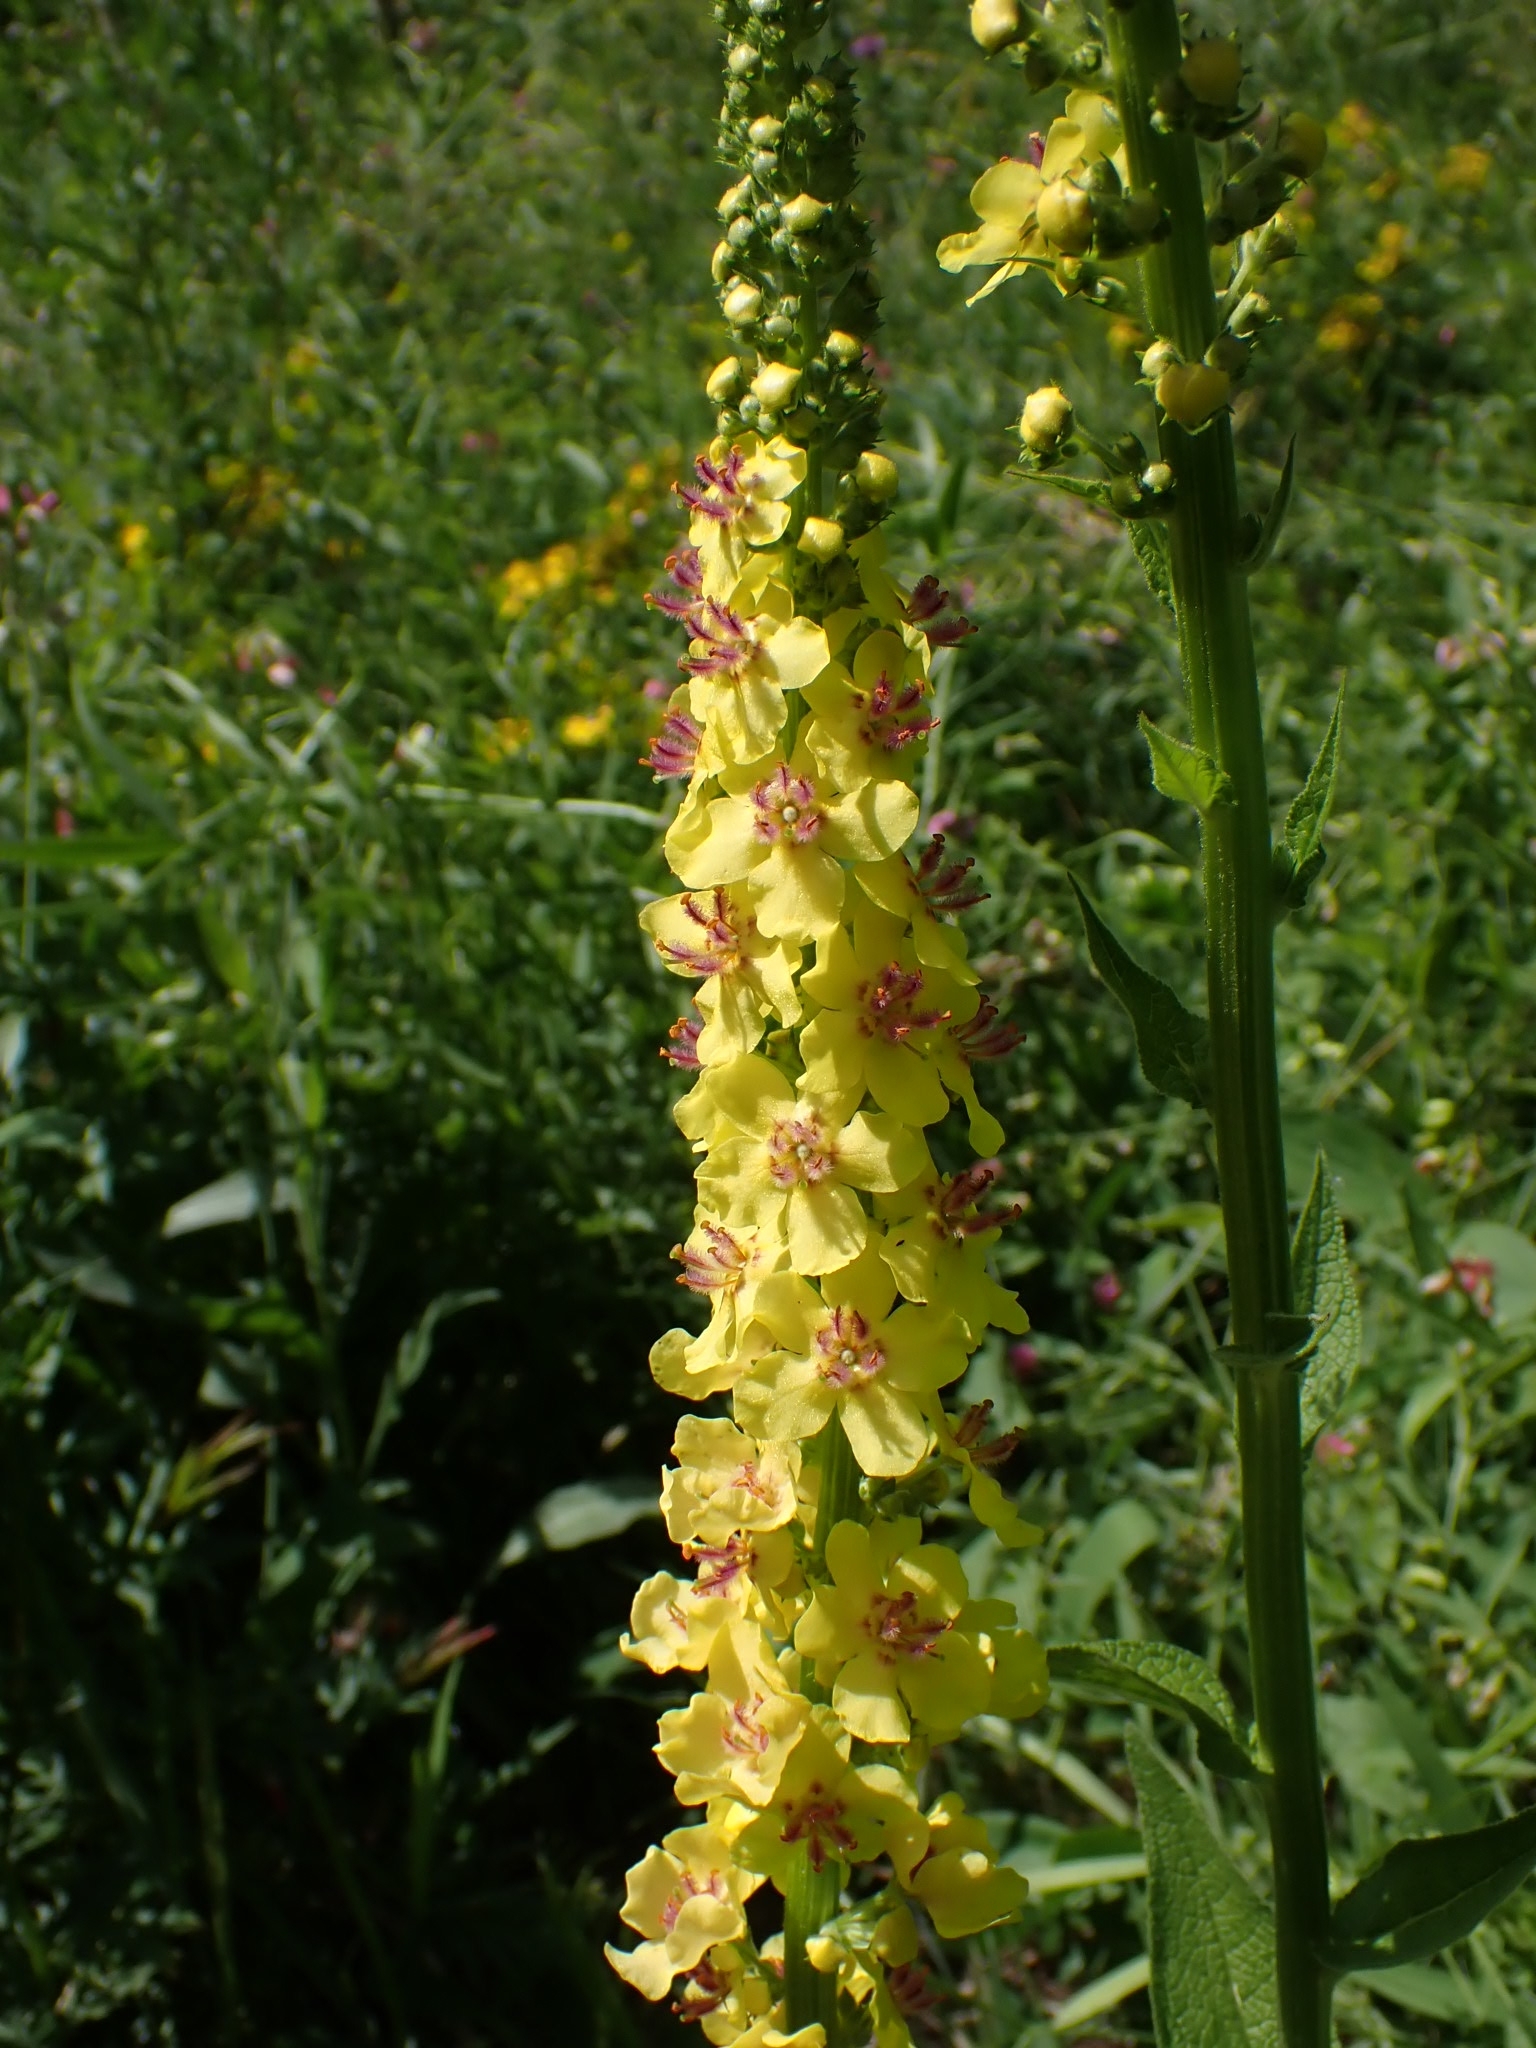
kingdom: Plantae
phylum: Tracheophyta
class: Magnoliopsida
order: Lamiales
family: Scrophulariaceae
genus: Verbascum
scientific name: Verbascum nigrum
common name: Dark mullein
